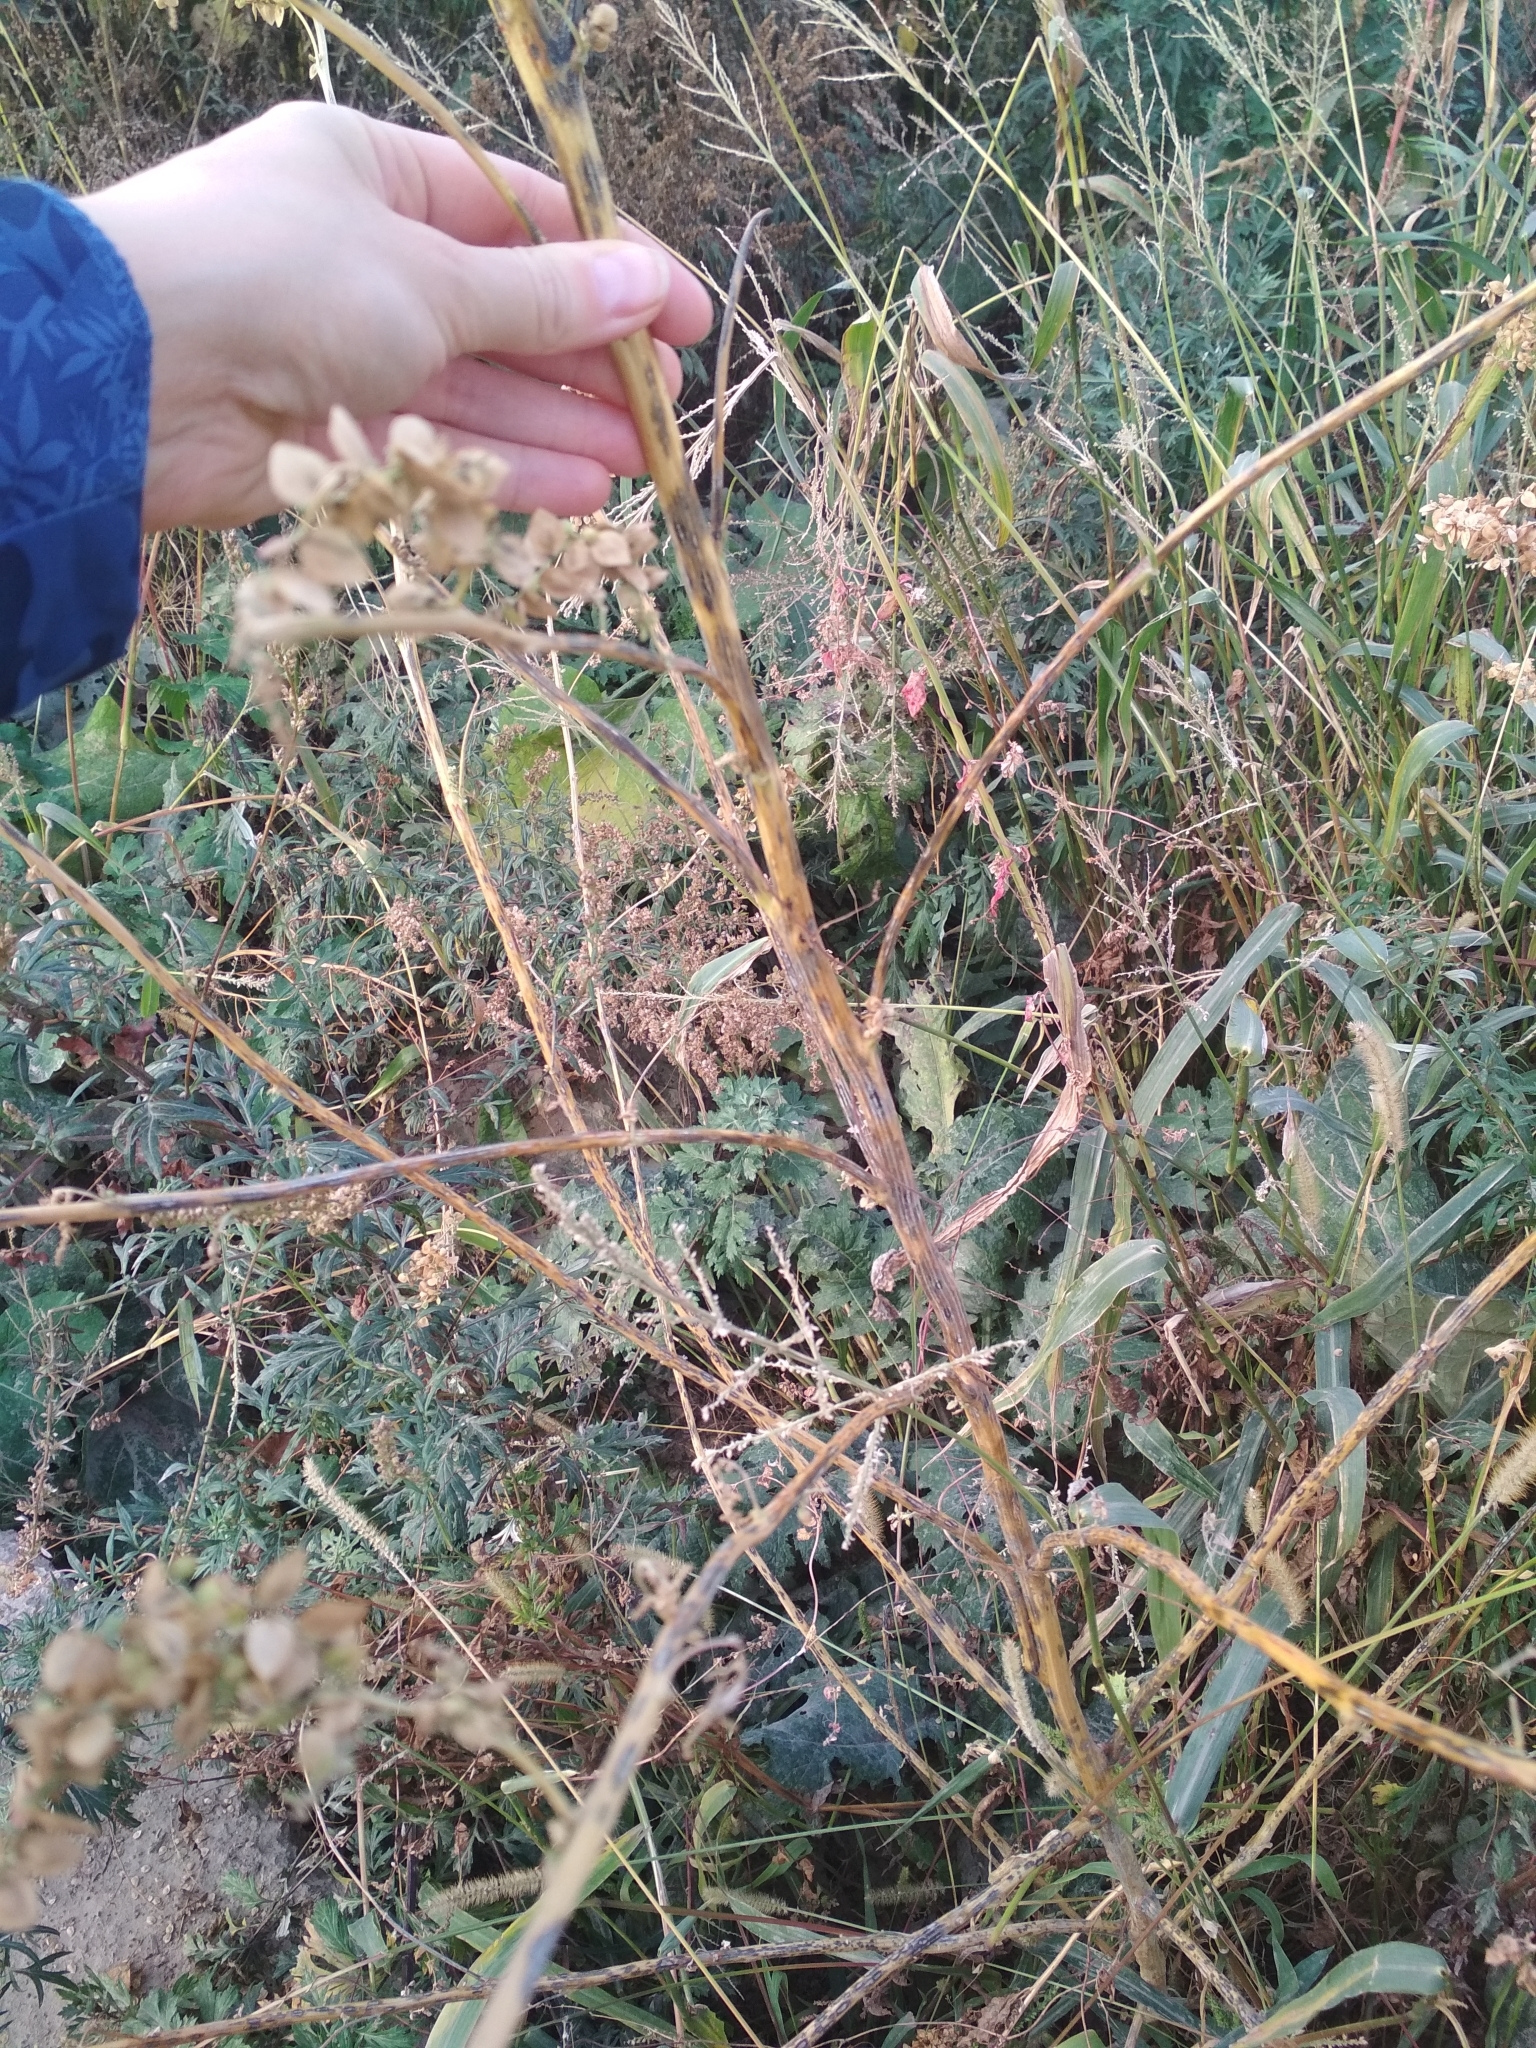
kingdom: Plantae
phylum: Tracheophyta
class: Magnoliopsida
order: Caryophyllales
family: Amaranthaceae
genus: Atriplex
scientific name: Atriplex sagittata
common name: Purple orache
